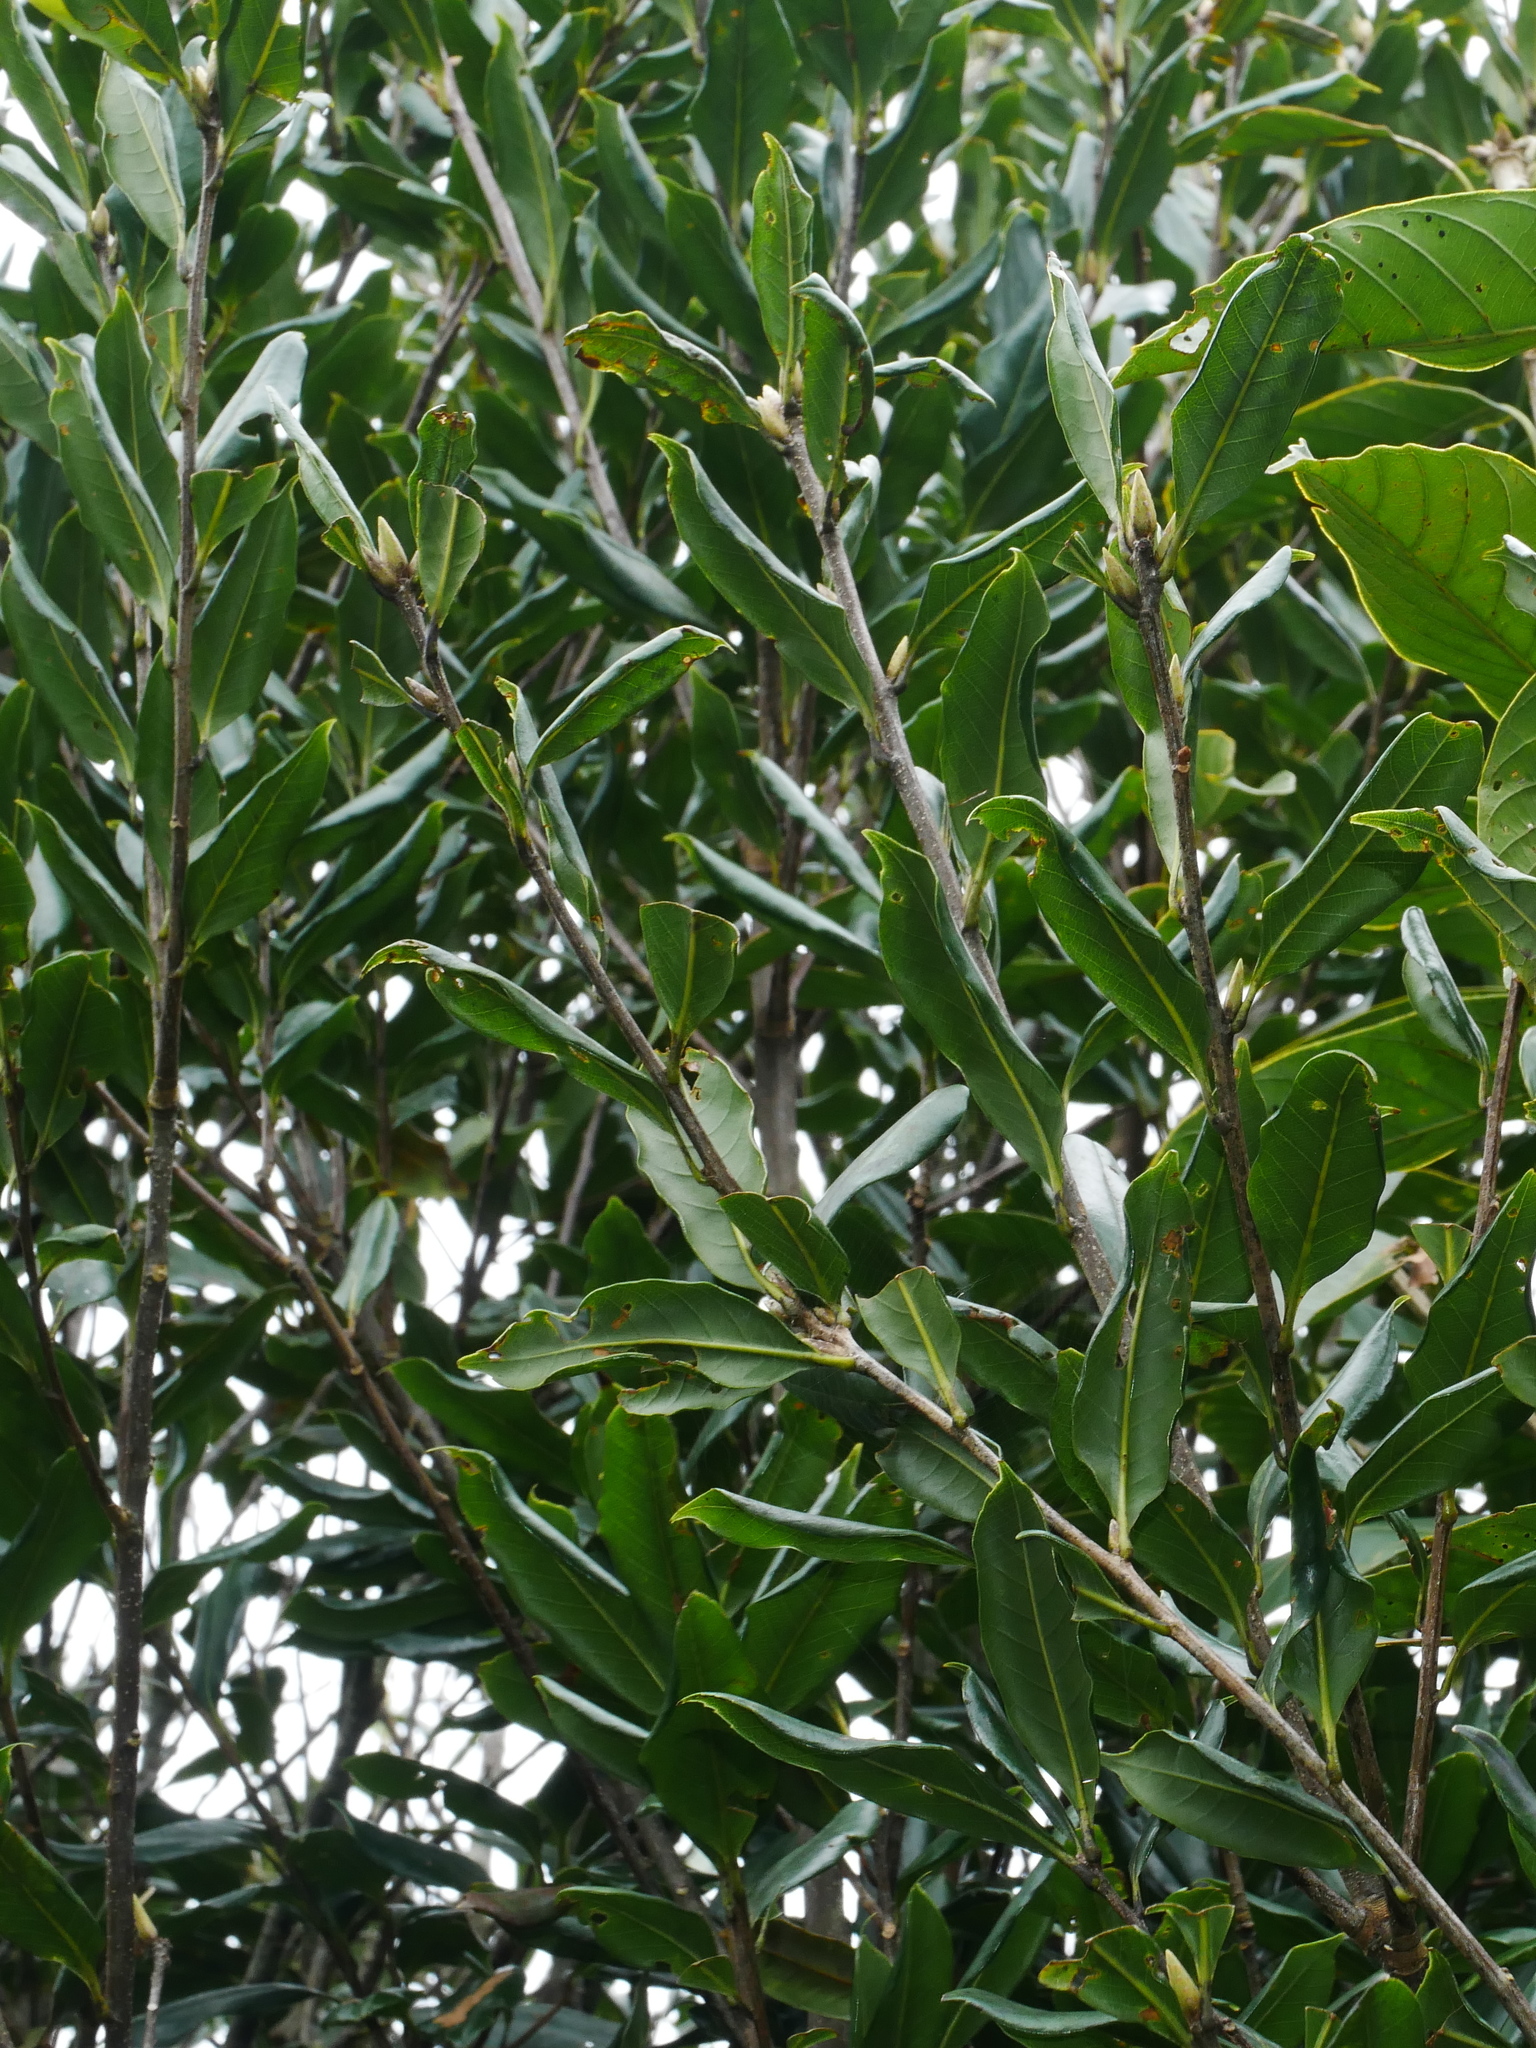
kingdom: Plantae
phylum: Tracheophyta
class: Magnoliopsida
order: Fagales
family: Fagaceae
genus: Quercus
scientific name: Quercus sessilifolia
